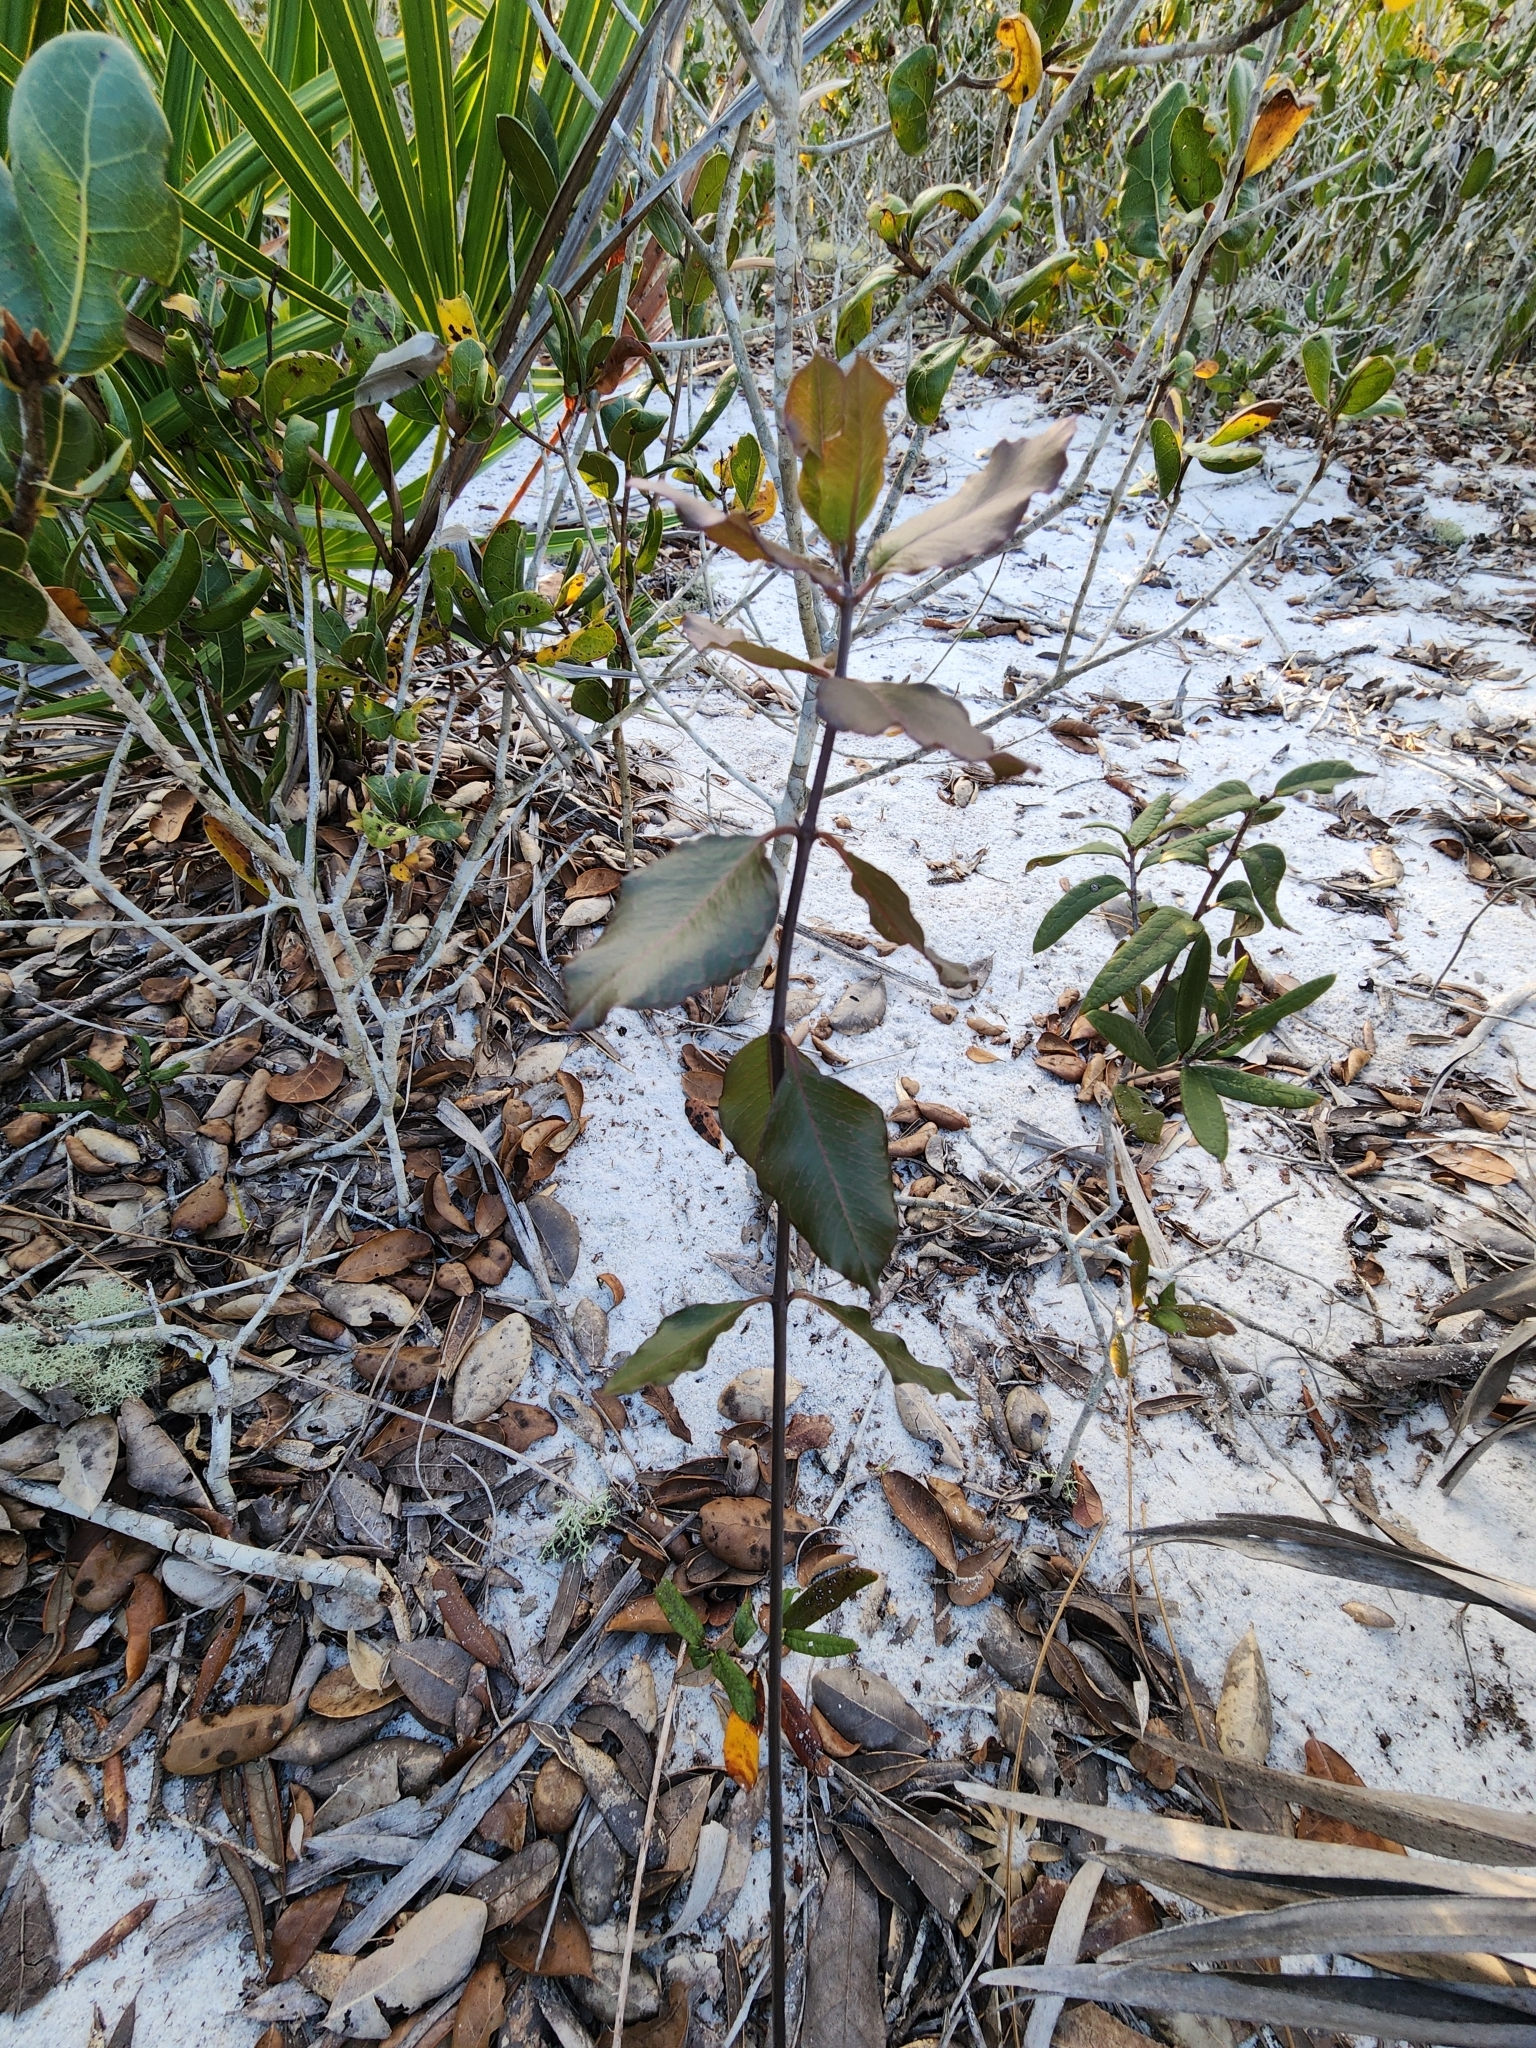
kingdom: Plantae
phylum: Tracheophyta
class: Magnoliopsida
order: Gentianales
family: Apocynaceae
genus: Asclepias
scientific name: Asclepias curtissii
